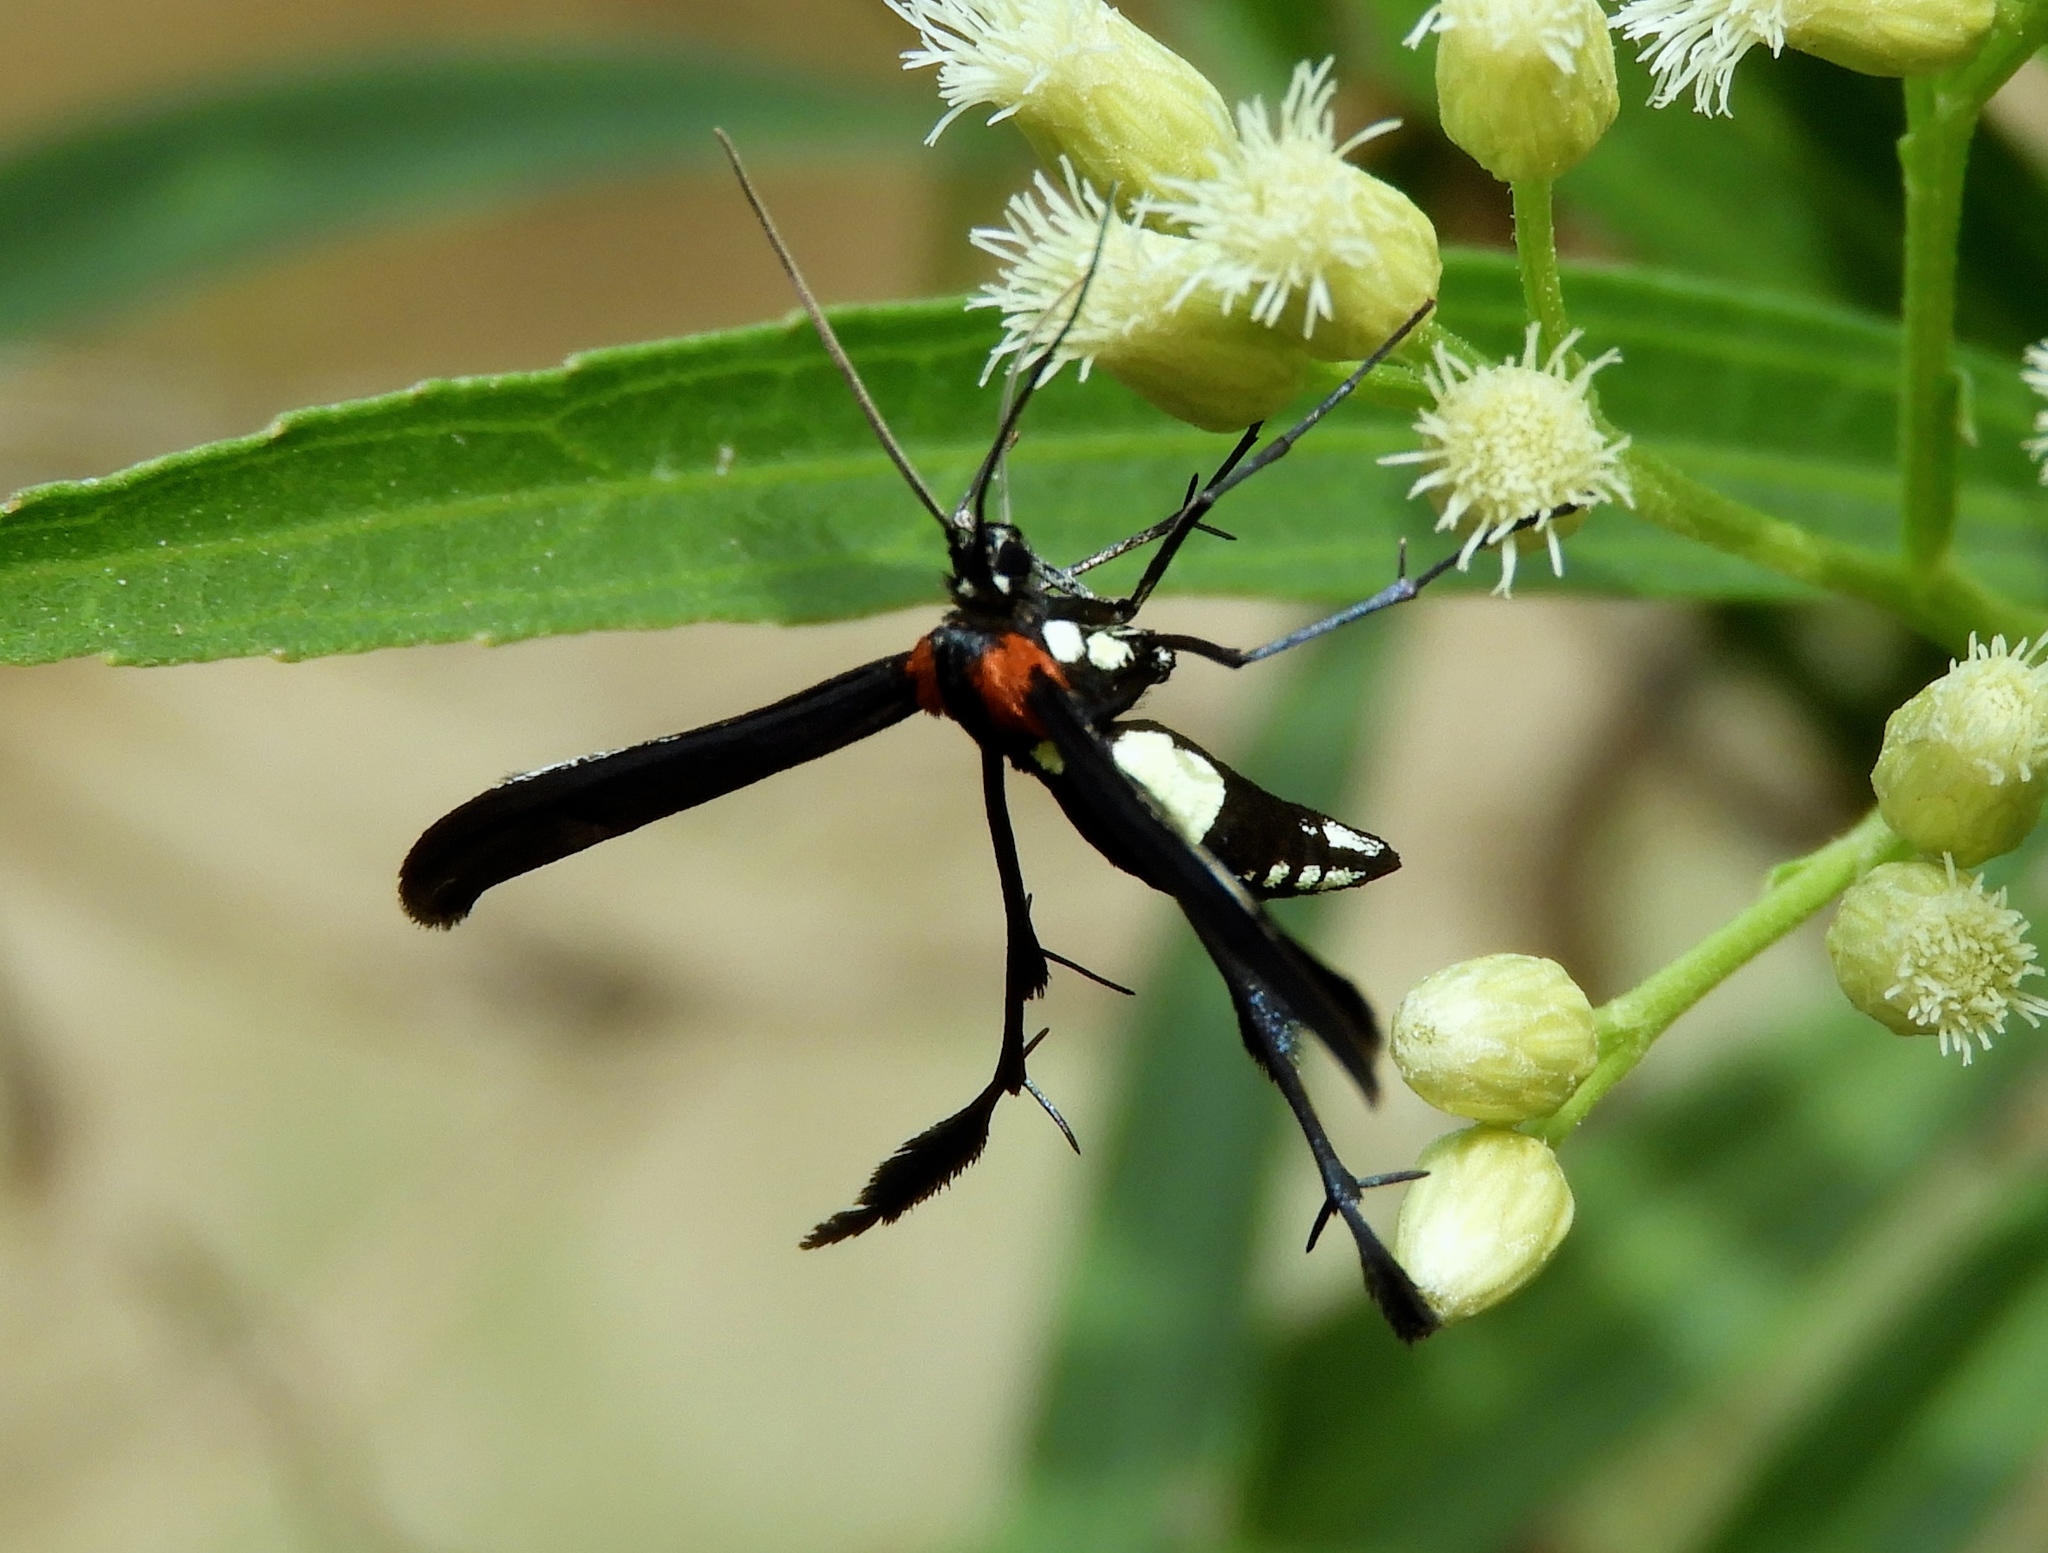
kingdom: Animalia
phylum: Arthropoda
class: Insecta
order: Lepidoptera
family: Pterophoridae
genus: Hellinsia
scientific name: Hellinsia chamelai
